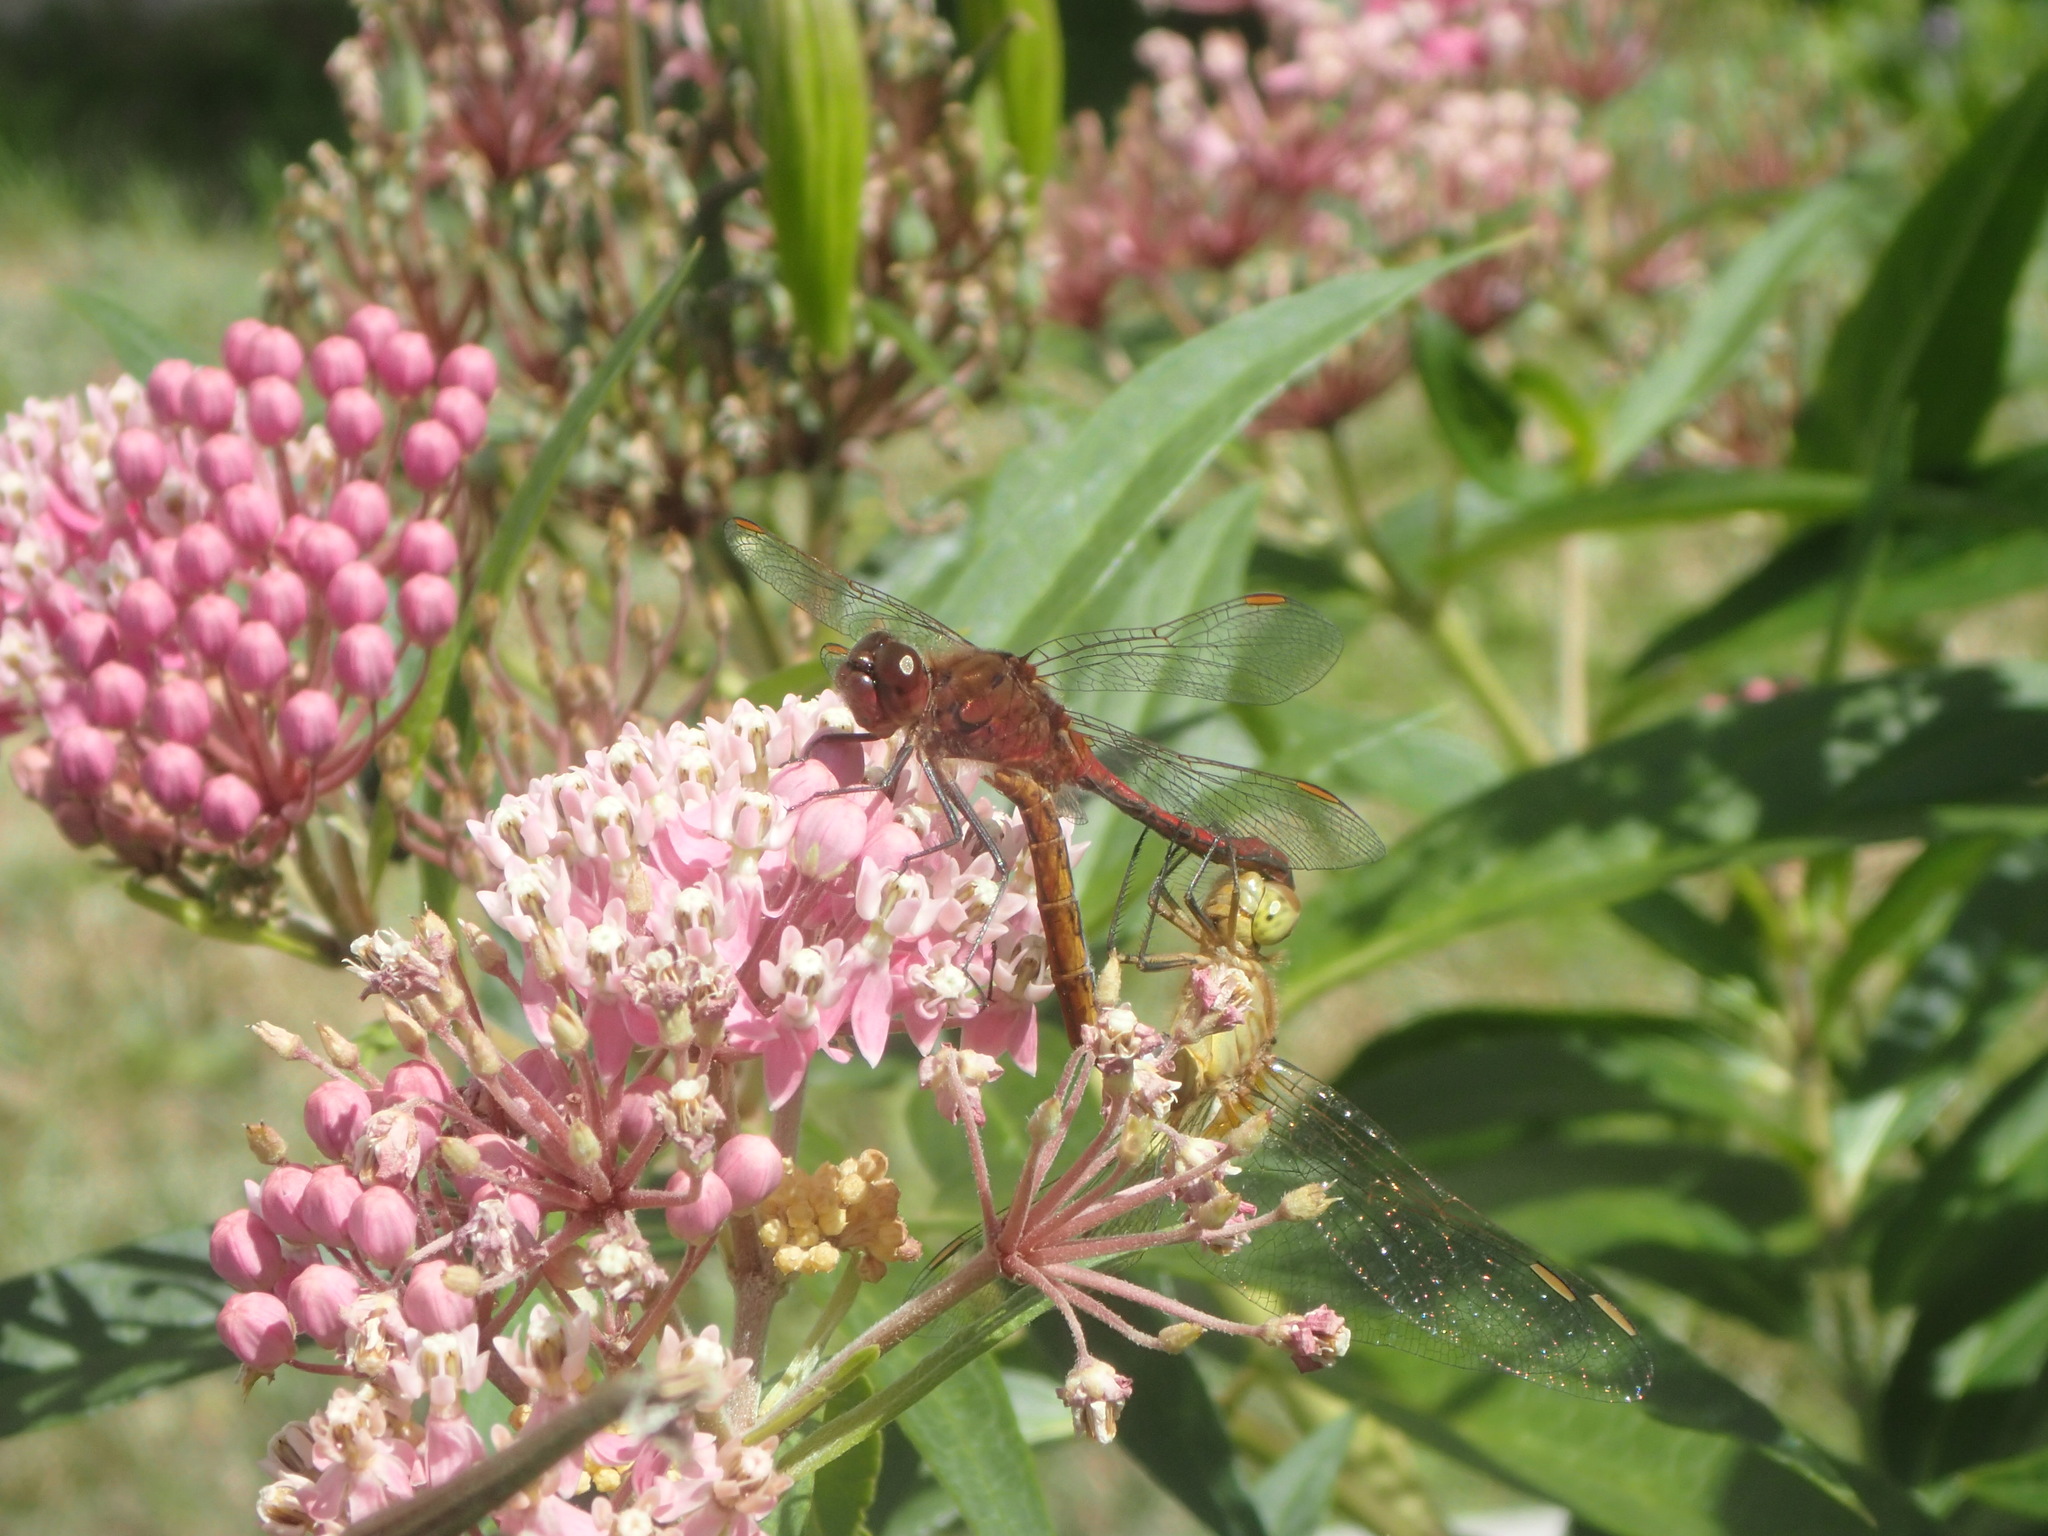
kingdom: Animalia
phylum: Arthropoda
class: Insecta
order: Odonata
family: Libellulidae
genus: Sympetrum
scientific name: Sympetrum costiferum
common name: Saffron-winged meadowhawk
